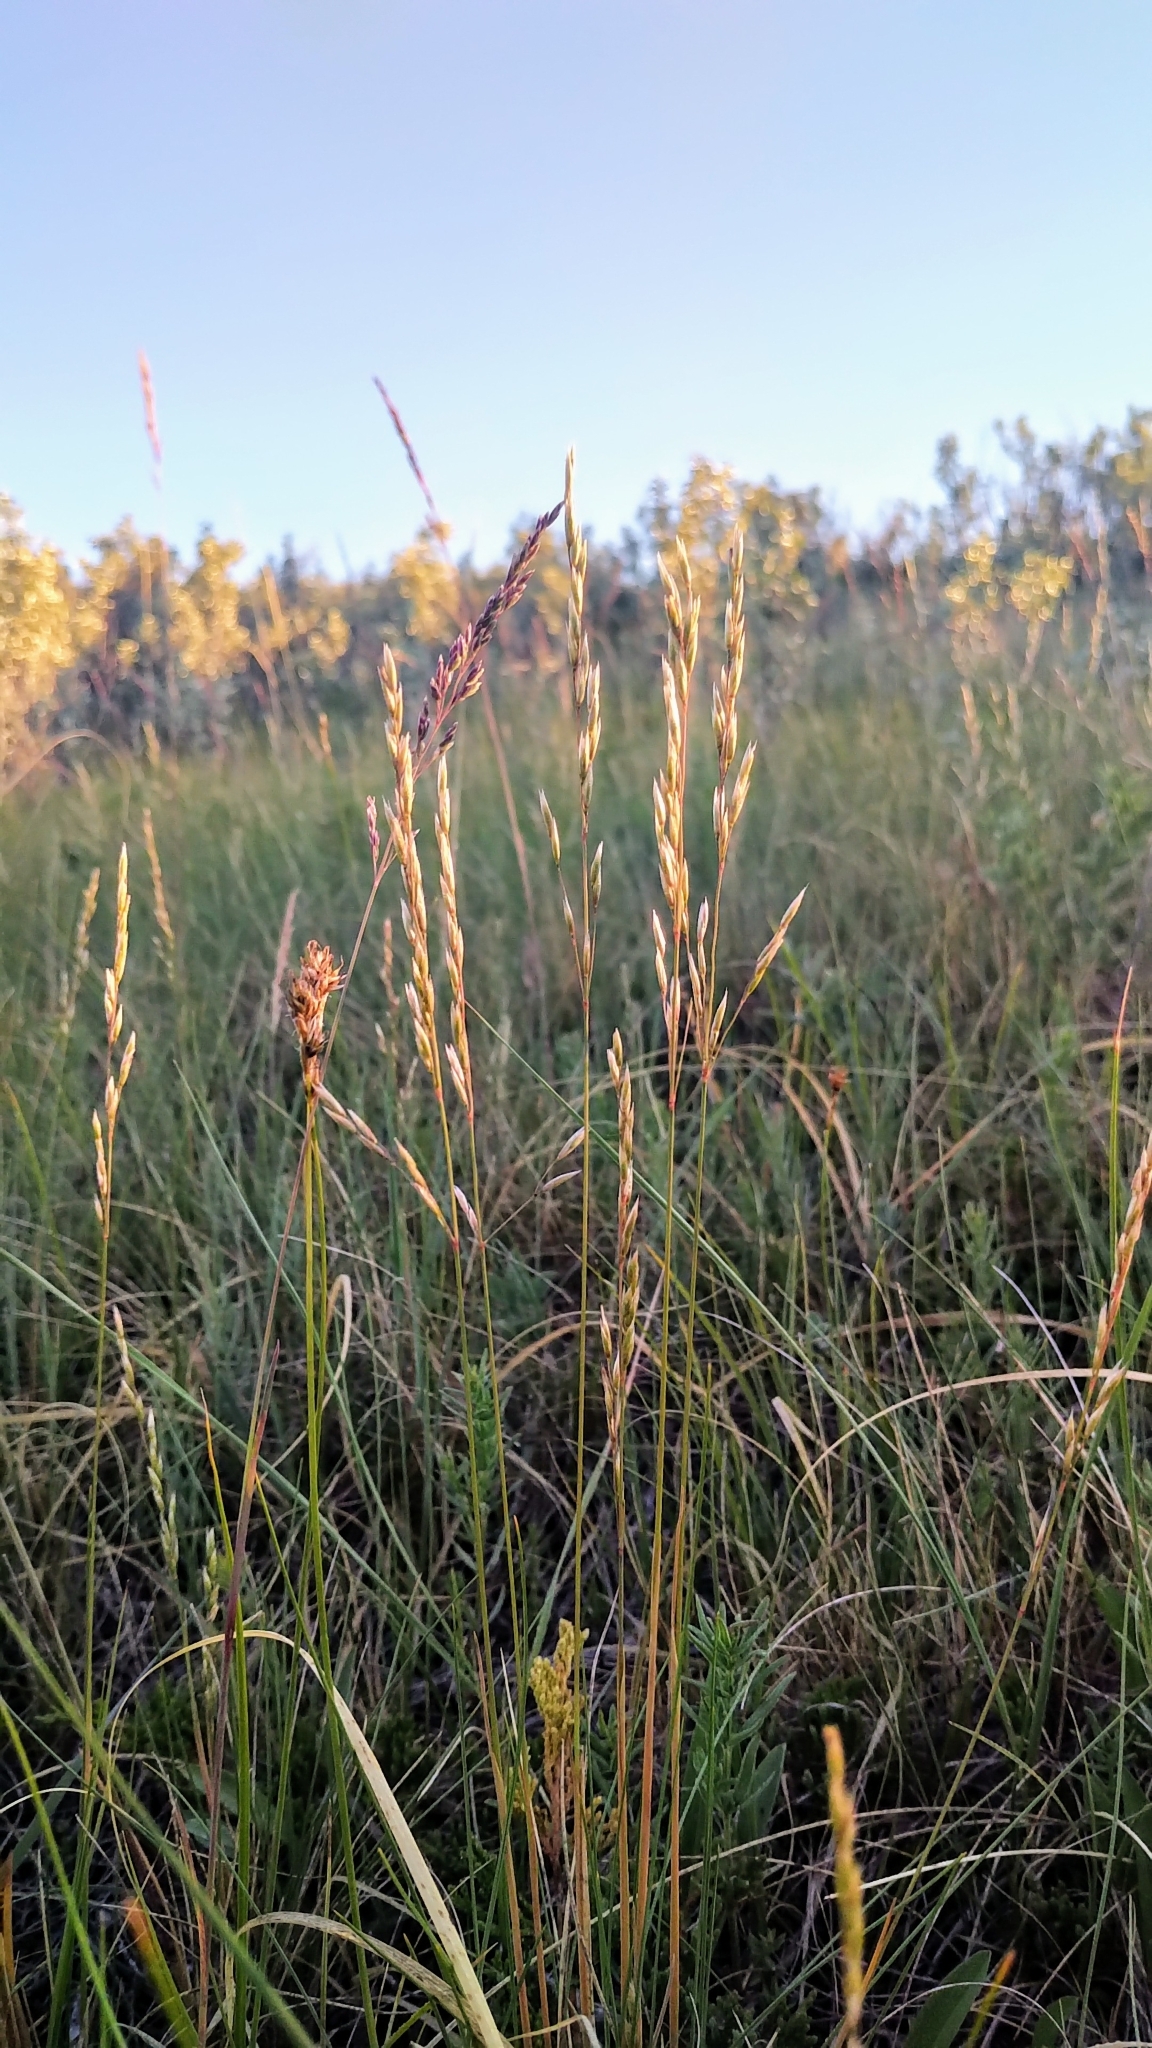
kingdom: Plantae
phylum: Tracheophyta
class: Liliopsida
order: Poales
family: Poaceae
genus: Festuca
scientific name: Festuca hallii
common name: Hall's fescue
